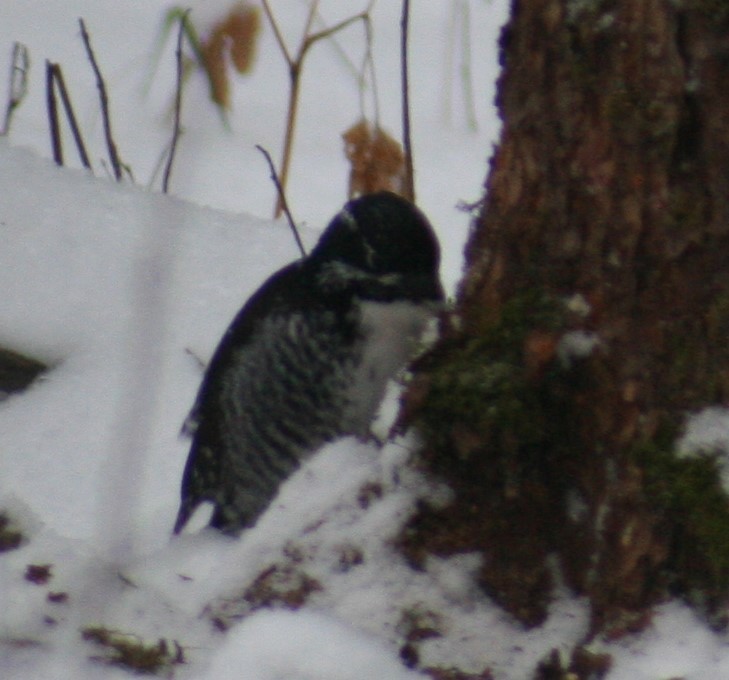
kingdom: Animalia
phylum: Chordata
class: Aves
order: Piciformes
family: Picidae
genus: Picoides
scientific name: Picoides dorsalis
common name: American three-toed woodpecker
